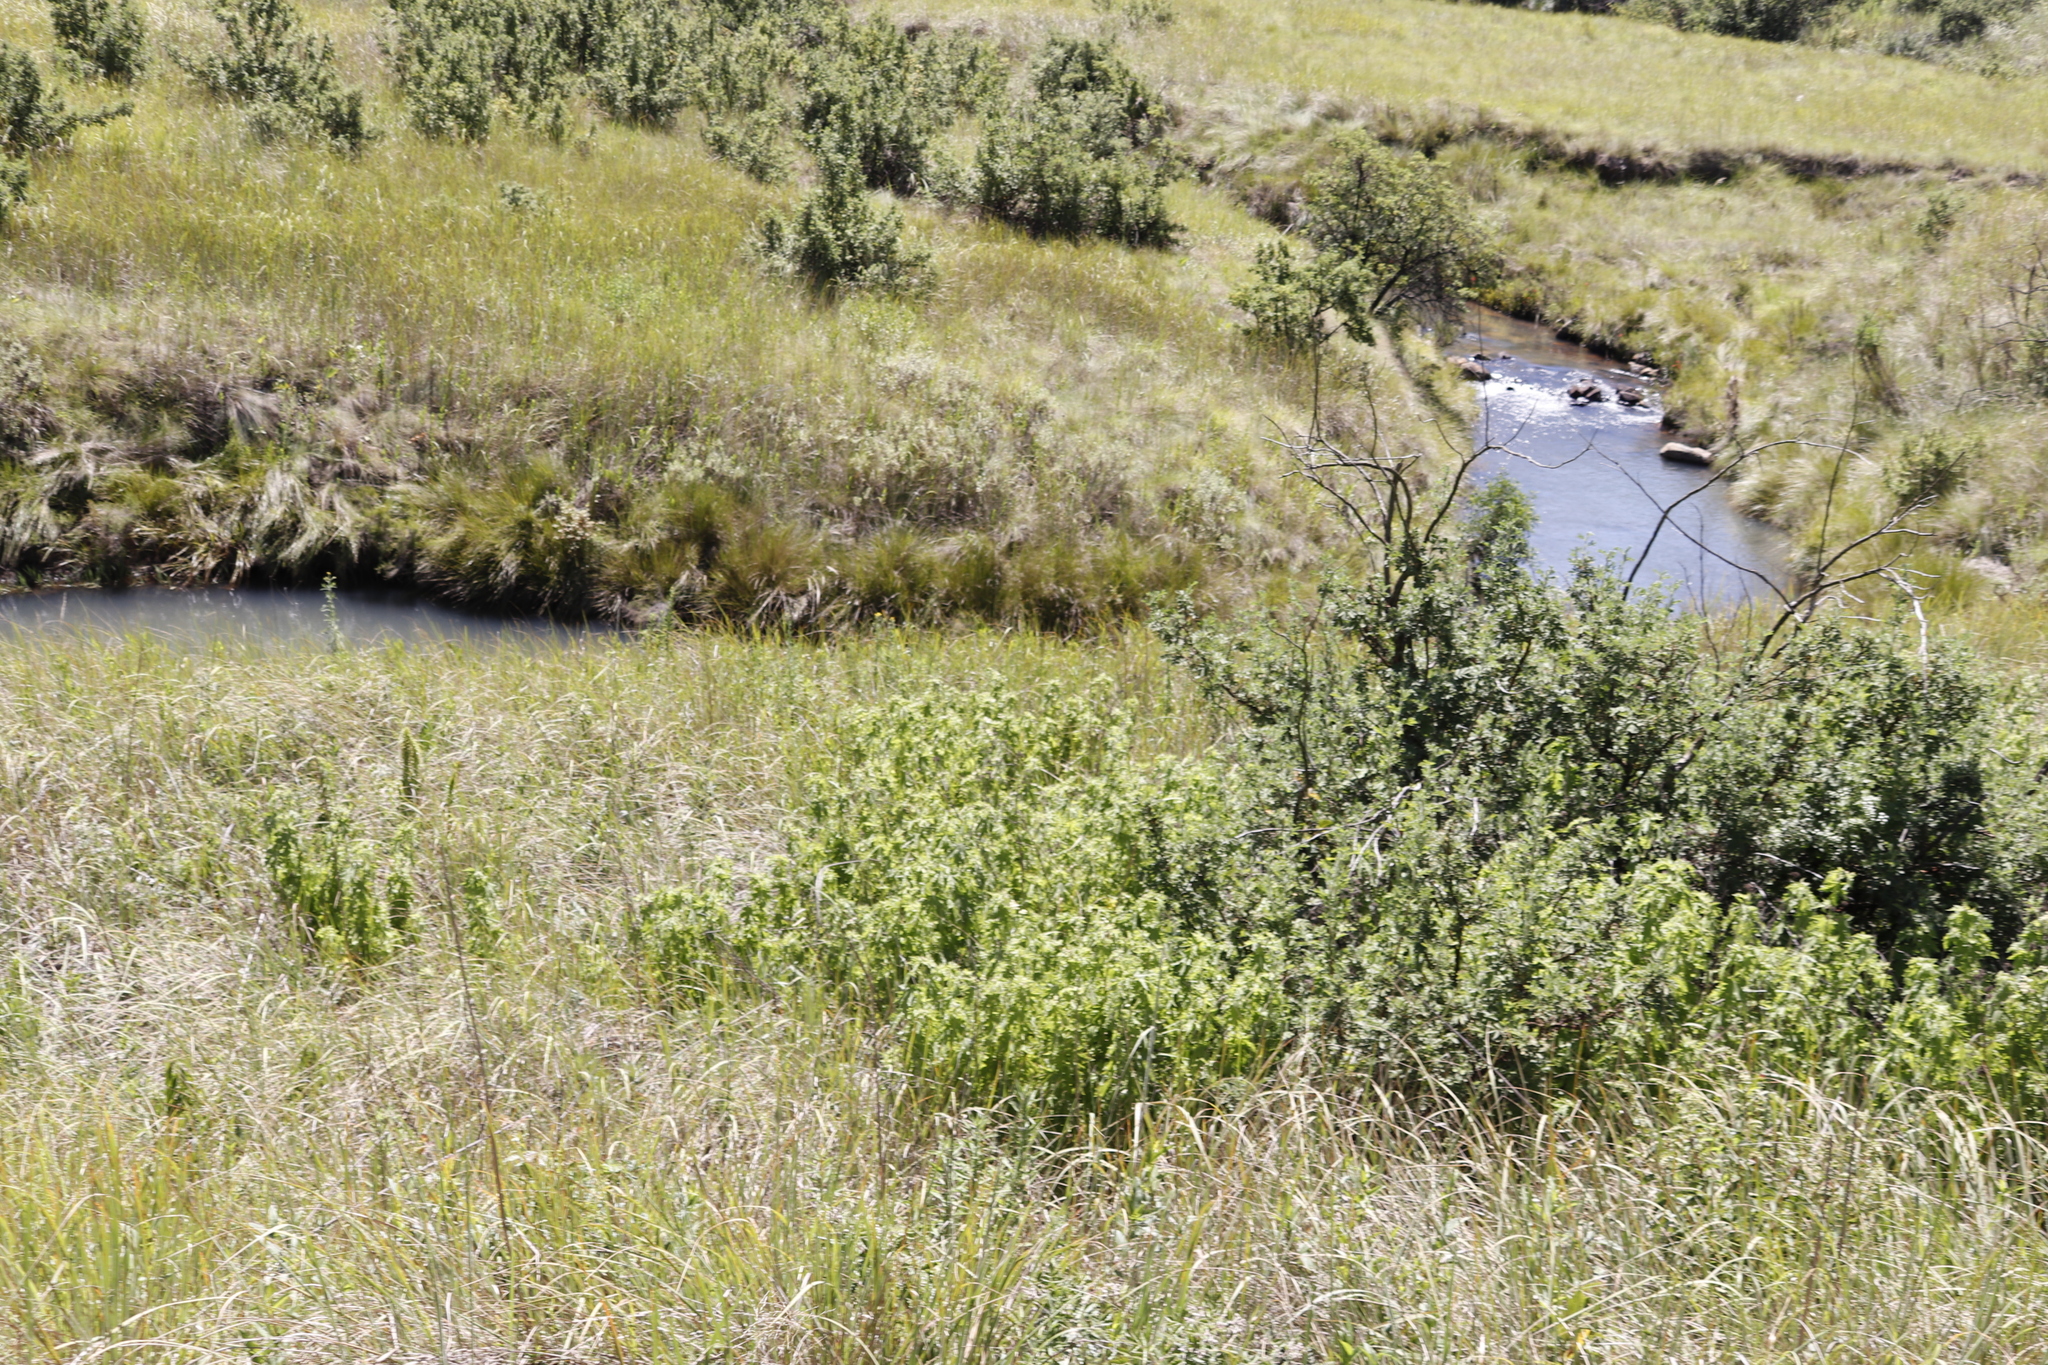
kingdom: Plantae
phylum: Tracheophyta
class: Magnoliopsida
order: Rosales
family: Rosaceae
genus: Leucosidea
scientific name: Leucosidea sericea
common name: Oldwood
